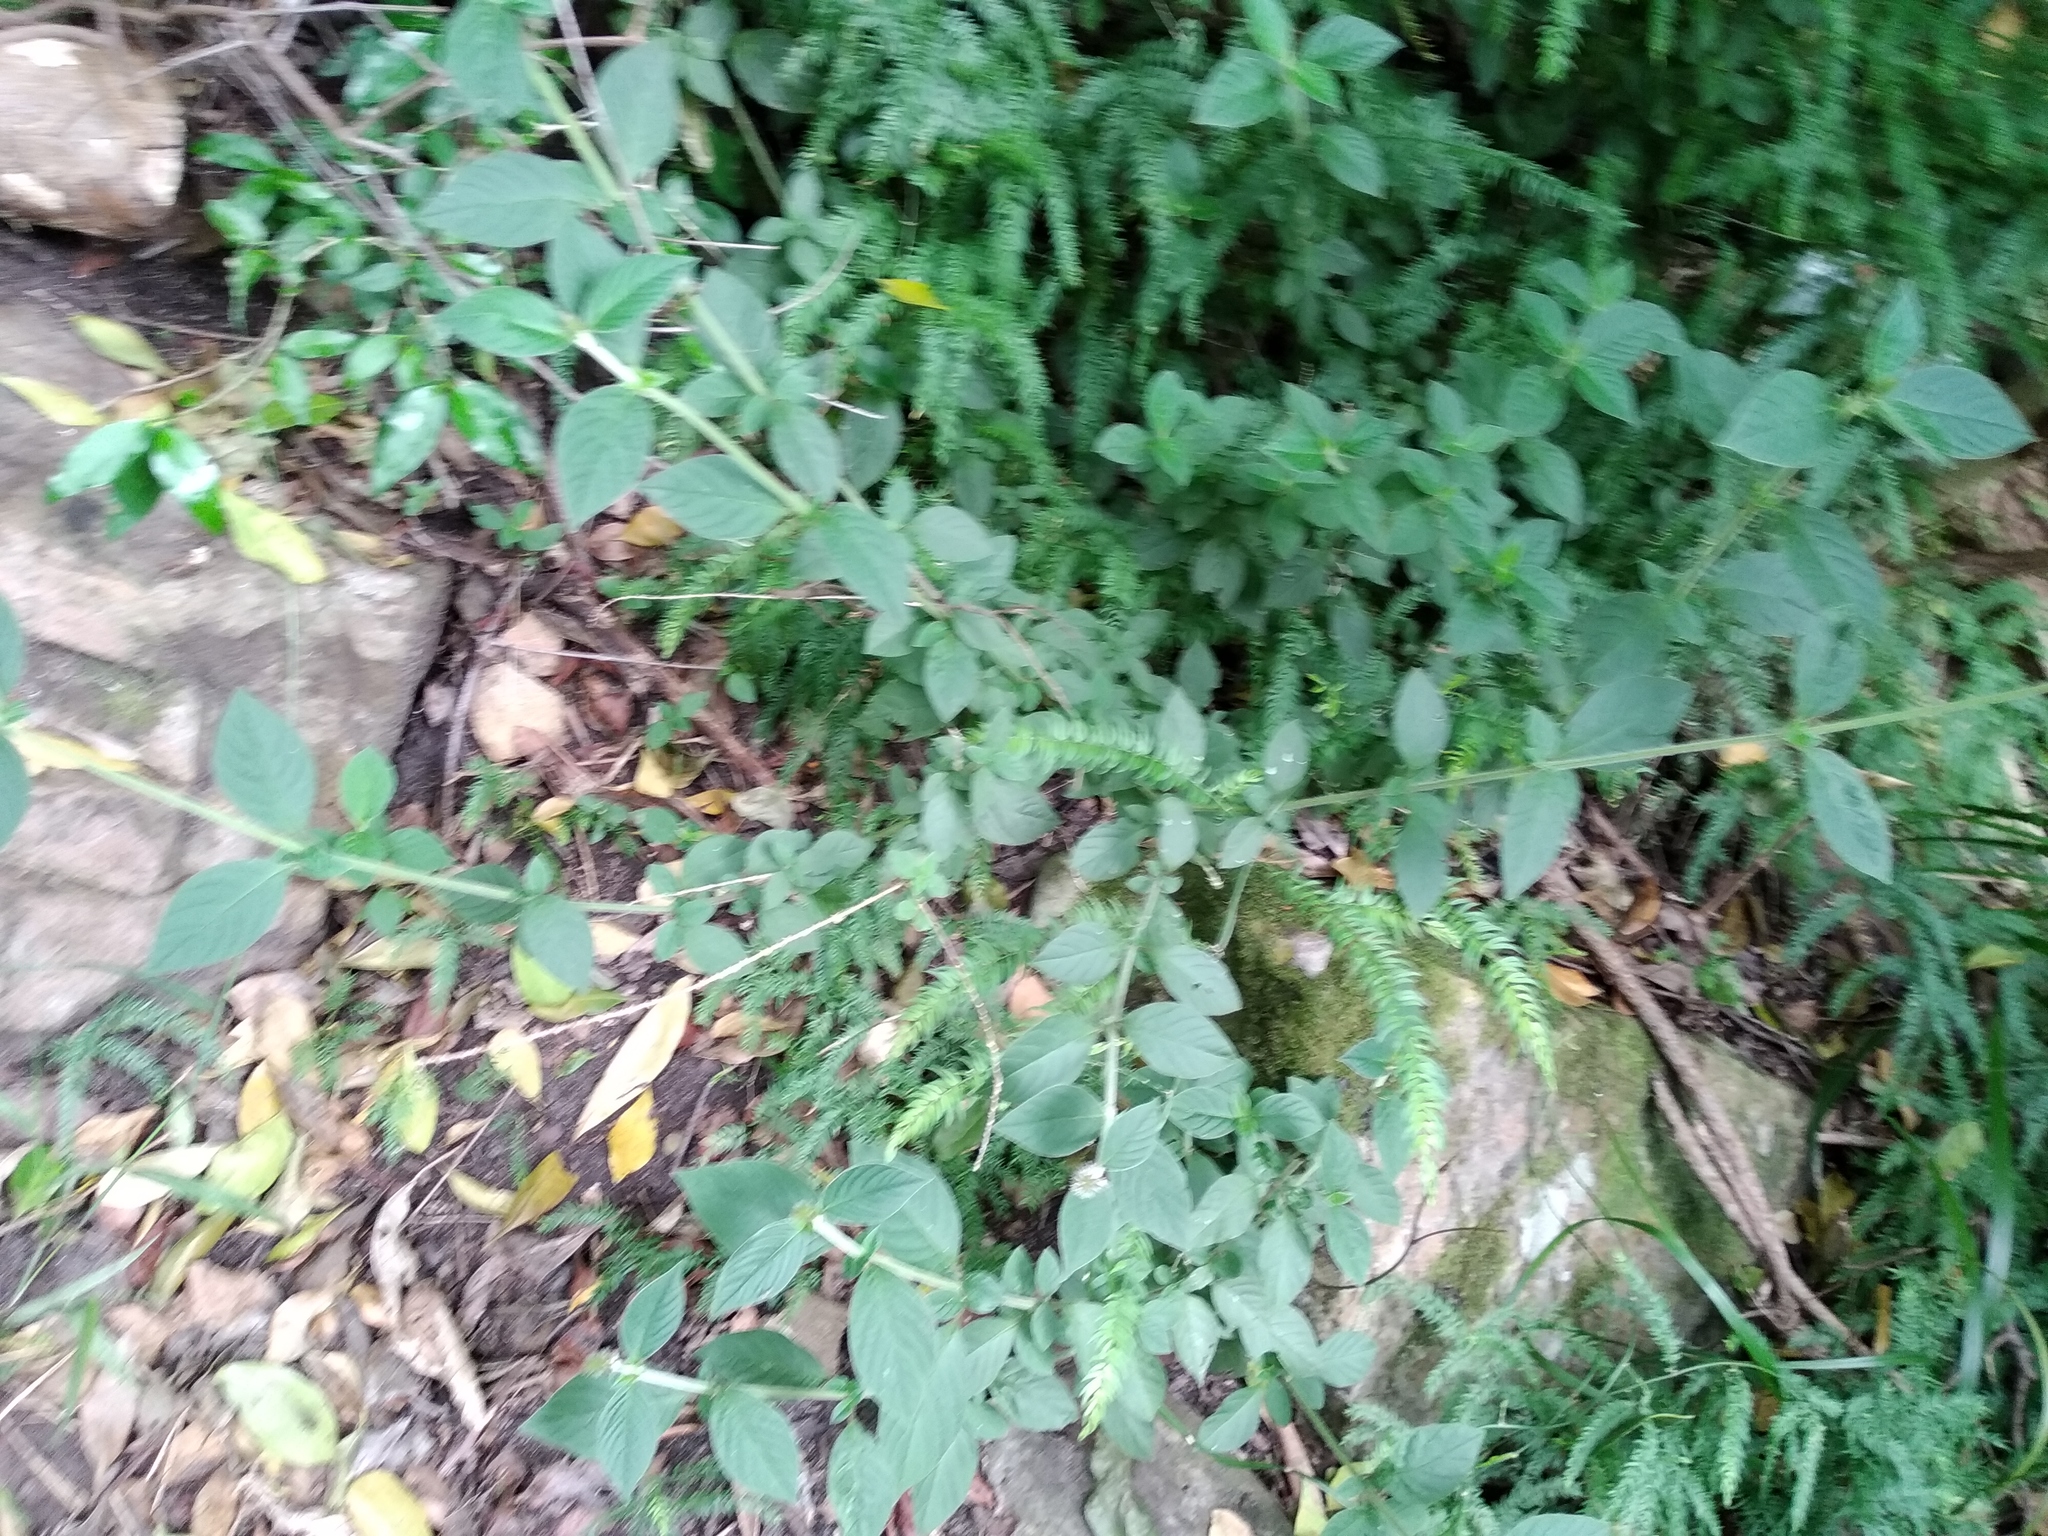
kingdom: Plantae
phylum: Tracheophyta
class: Magnoliopsida
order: Caryophyllales
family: Amaranthaceae
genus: Achyranthes
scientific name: Achyranthes aspera
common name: Devil's horsewhip
